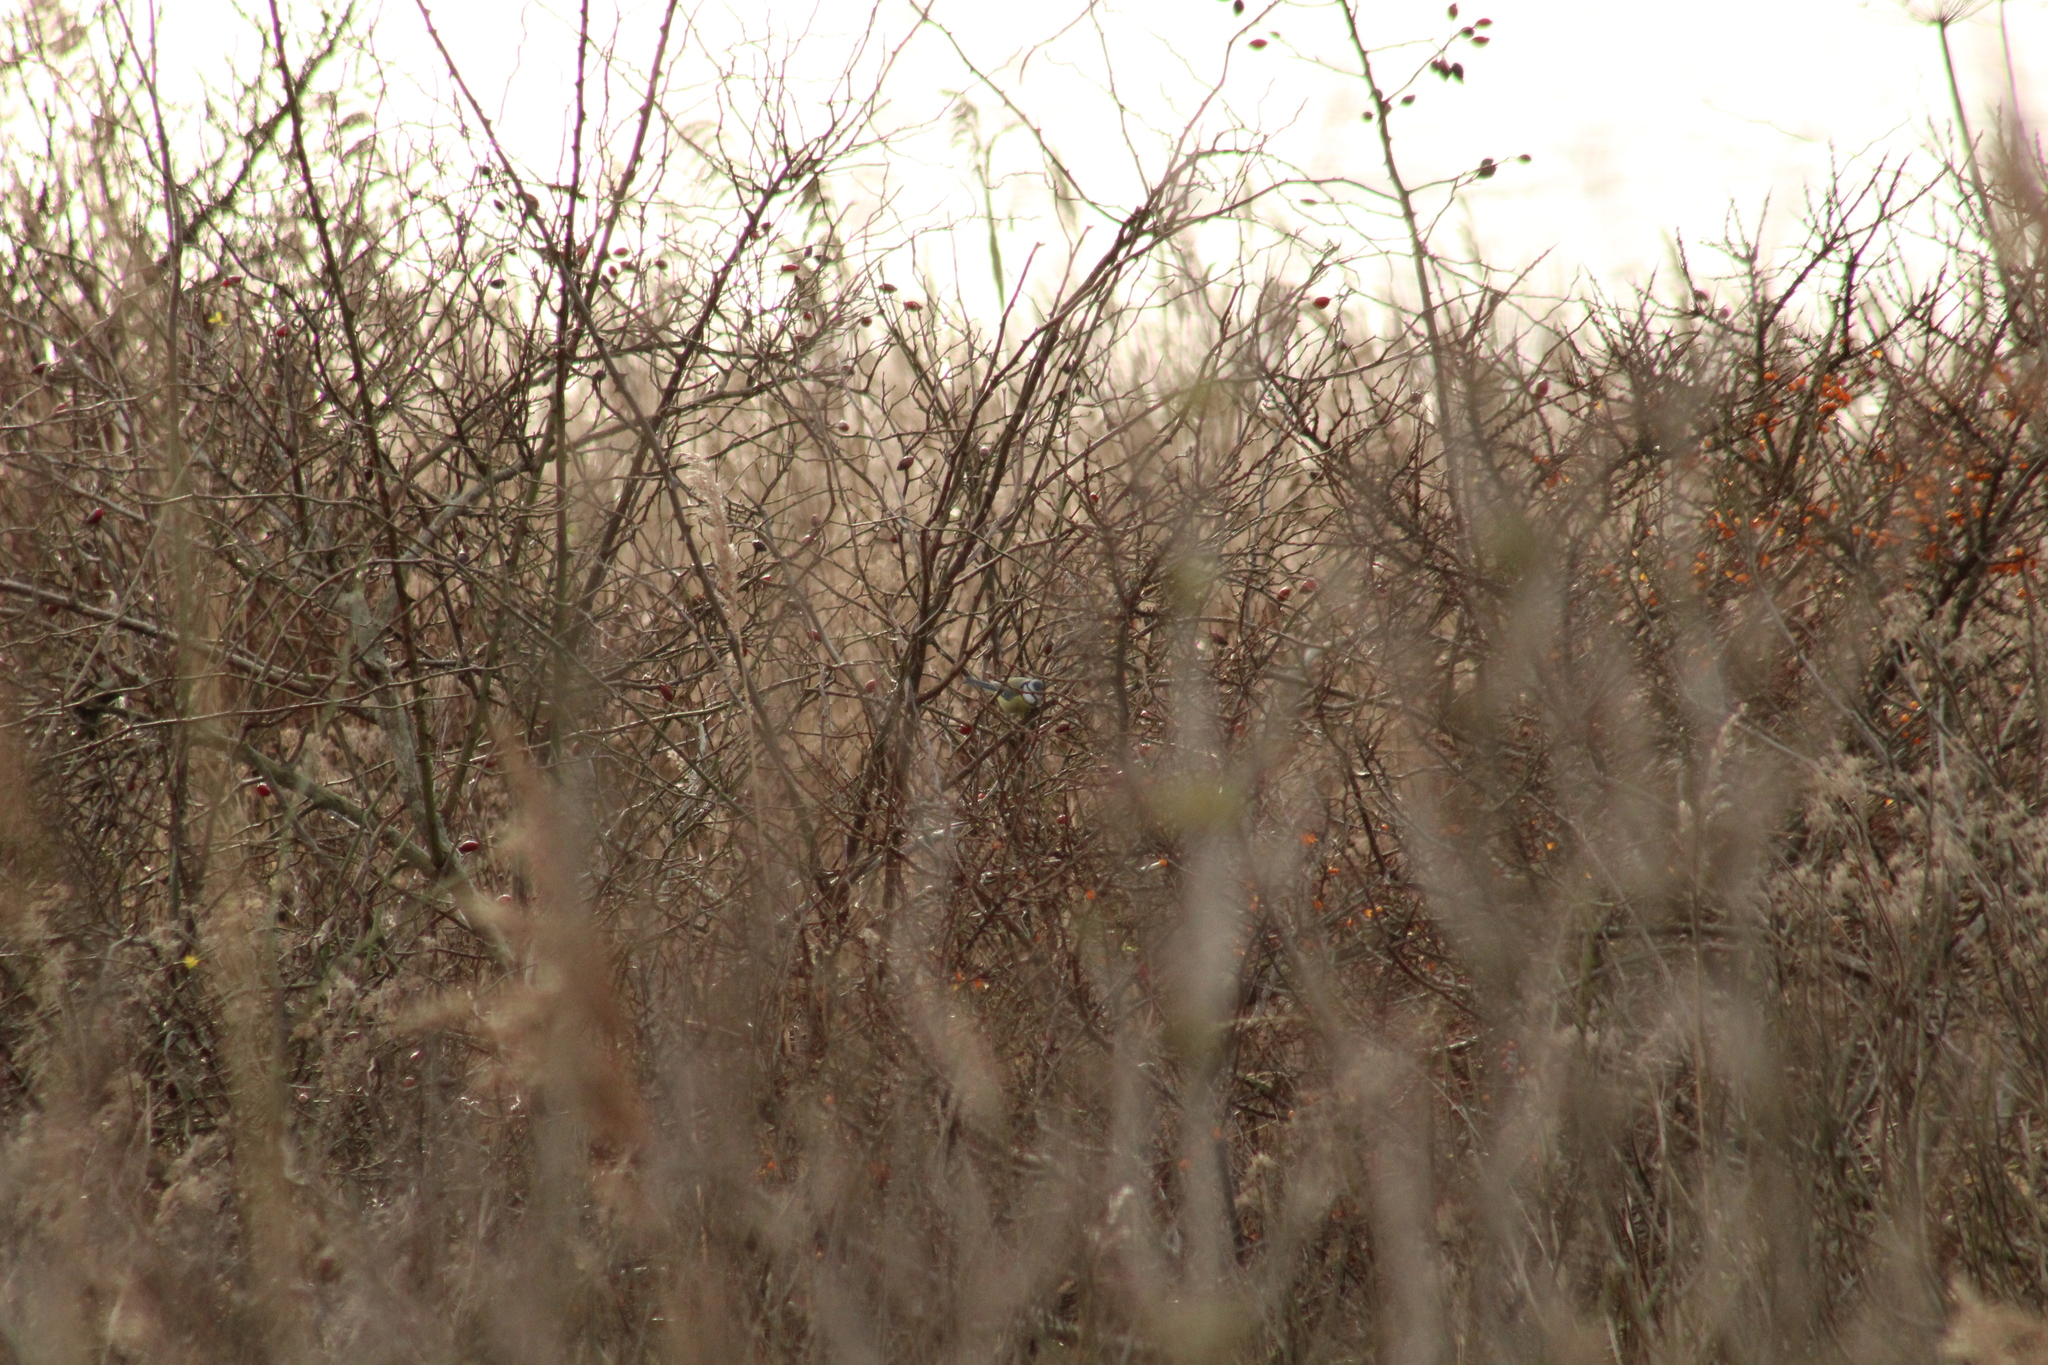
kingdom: Animalia
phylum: Chordata
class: Aves
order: Passeriformes
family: Paridae
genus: Cyanistes
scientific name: Cyanistes caeruleus
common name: Eurasian blue tit
